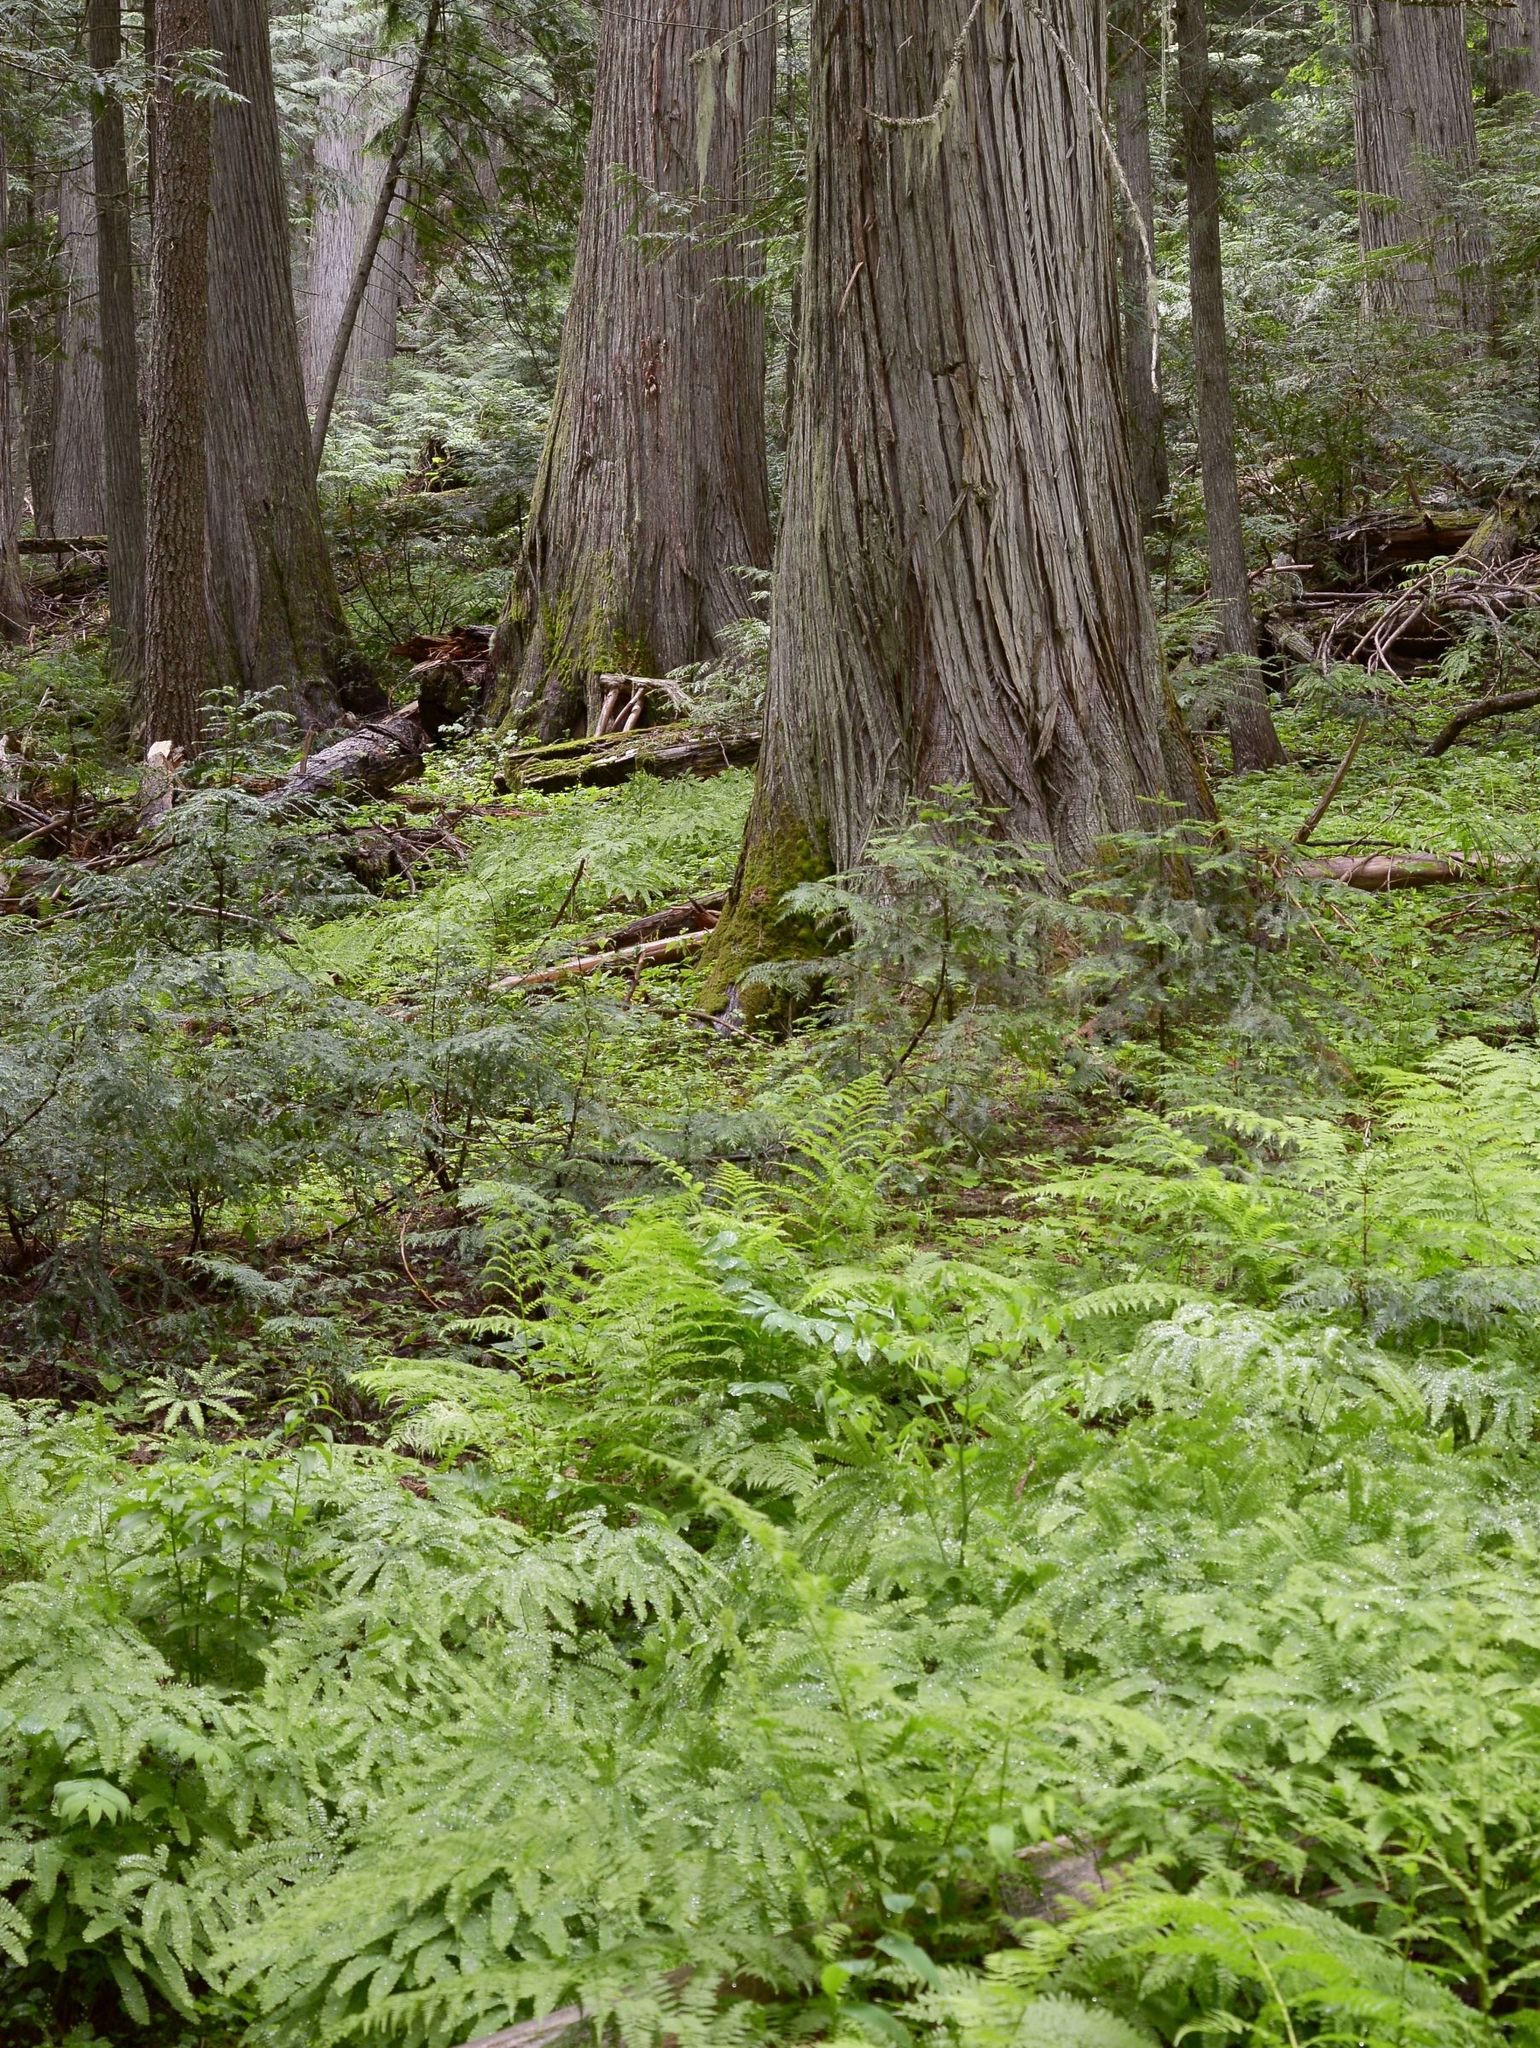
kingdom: Plantae
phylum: Tracheophyta
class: Polypodiopsida
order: Polypodiales
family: Pteridaceae
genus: Adiantum
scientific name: Adiantum aleuticum
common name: Aleutian maidenhair fern
